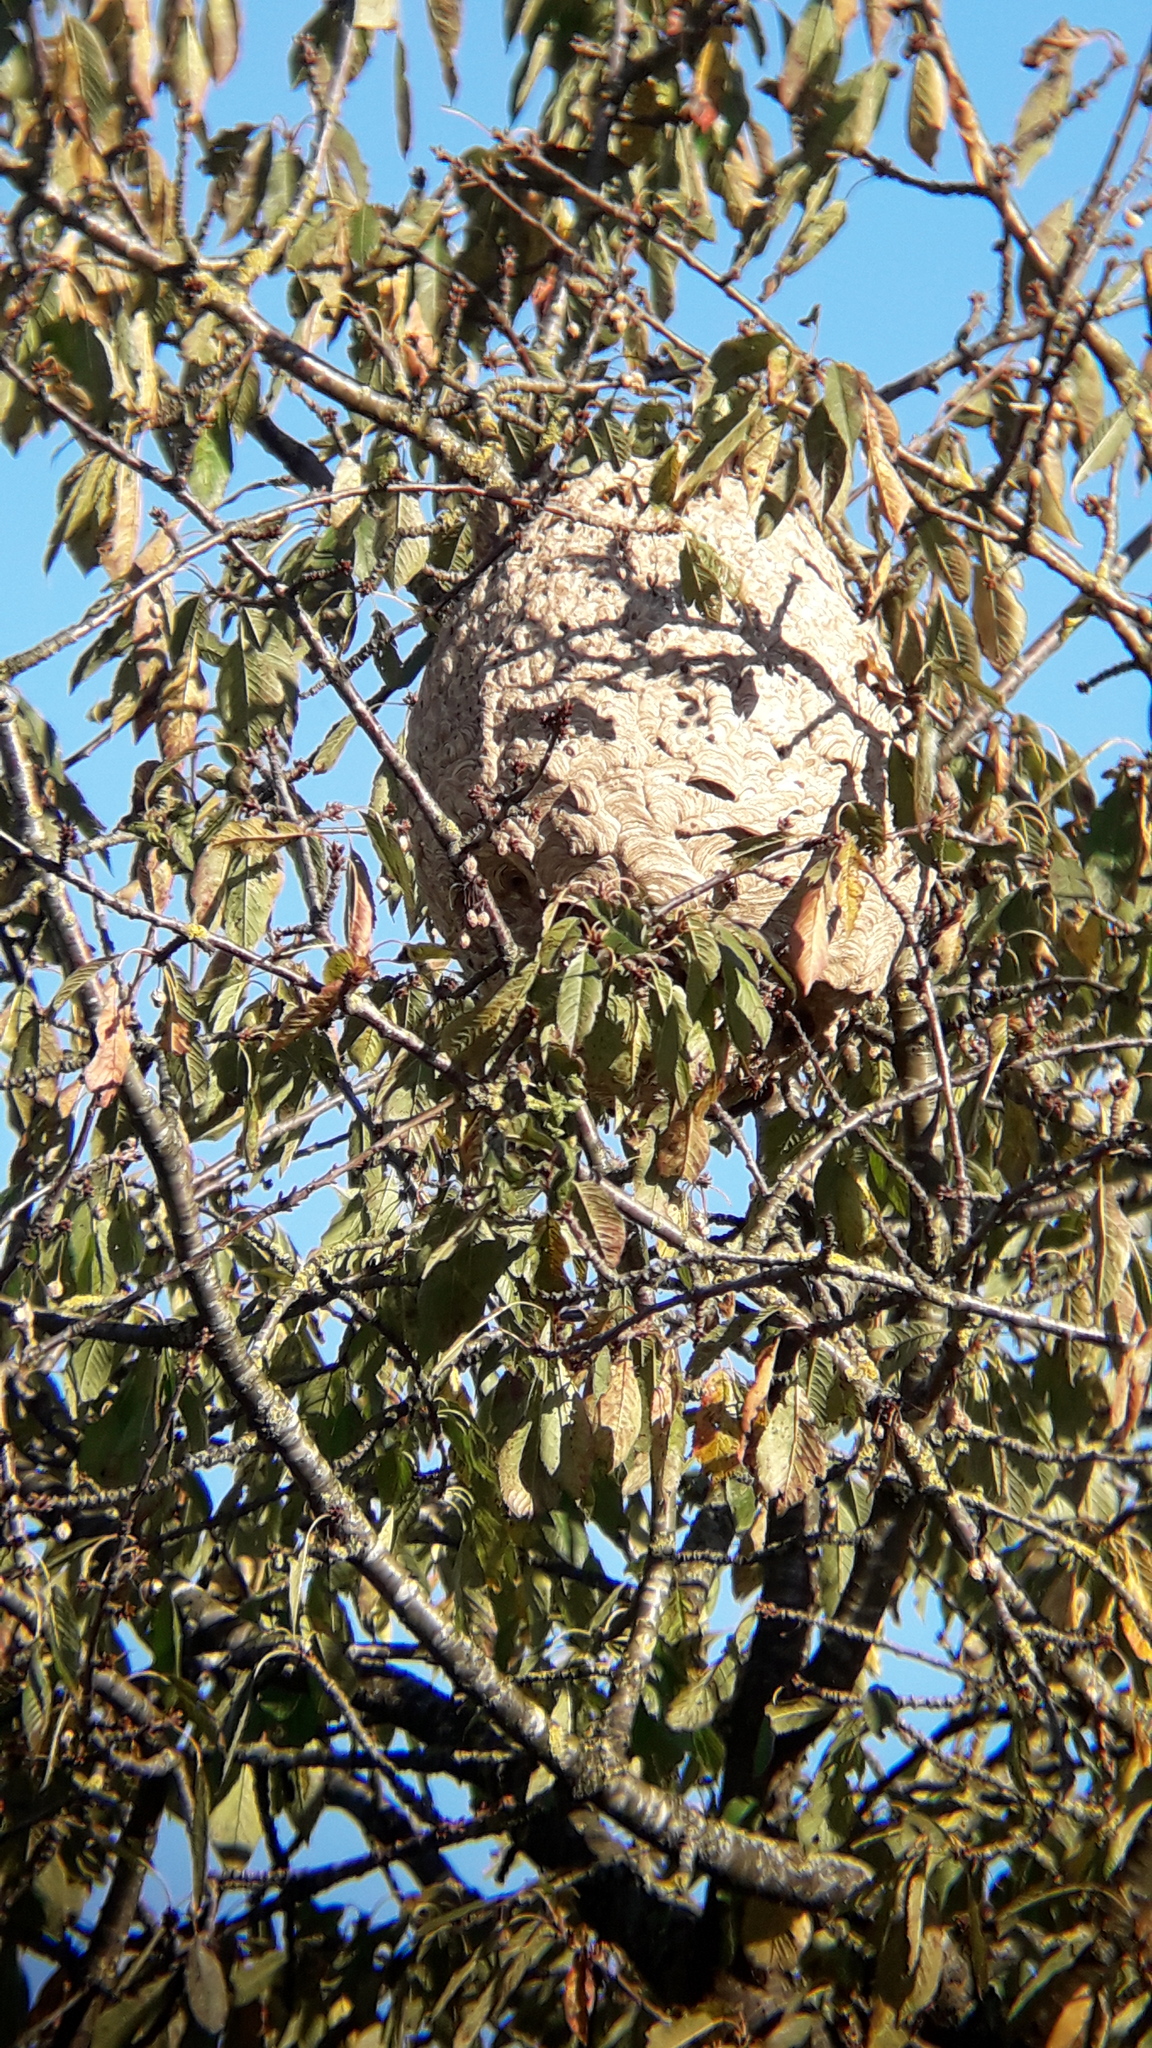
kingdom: Animalia
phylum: Arthropoda
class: Insecta
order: Hymenoptera
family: Vespidae
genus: Vespa
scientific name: Vespa velutina
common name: Asian hornet
